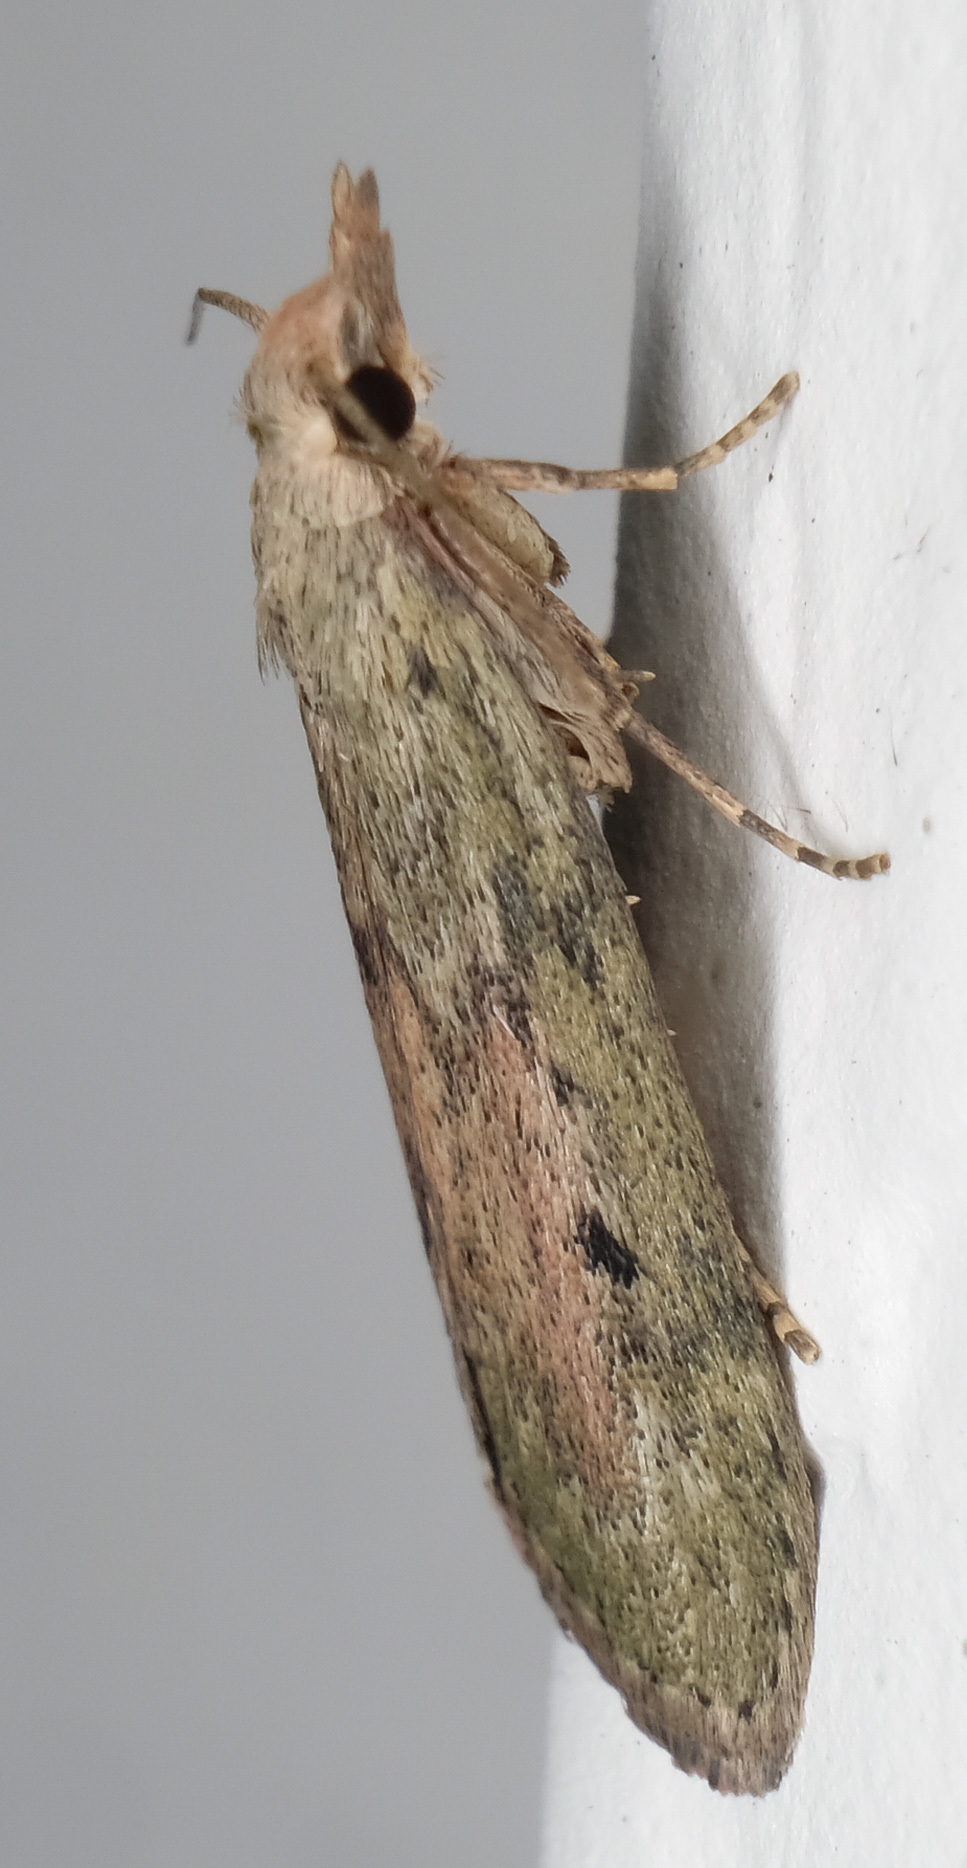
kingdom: Animalia
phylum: Arthropoda
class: Insecta
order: Lepidoptera
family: Pyralidae
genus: Aphomia
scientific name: Aphomia sociella
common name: Bee moth
